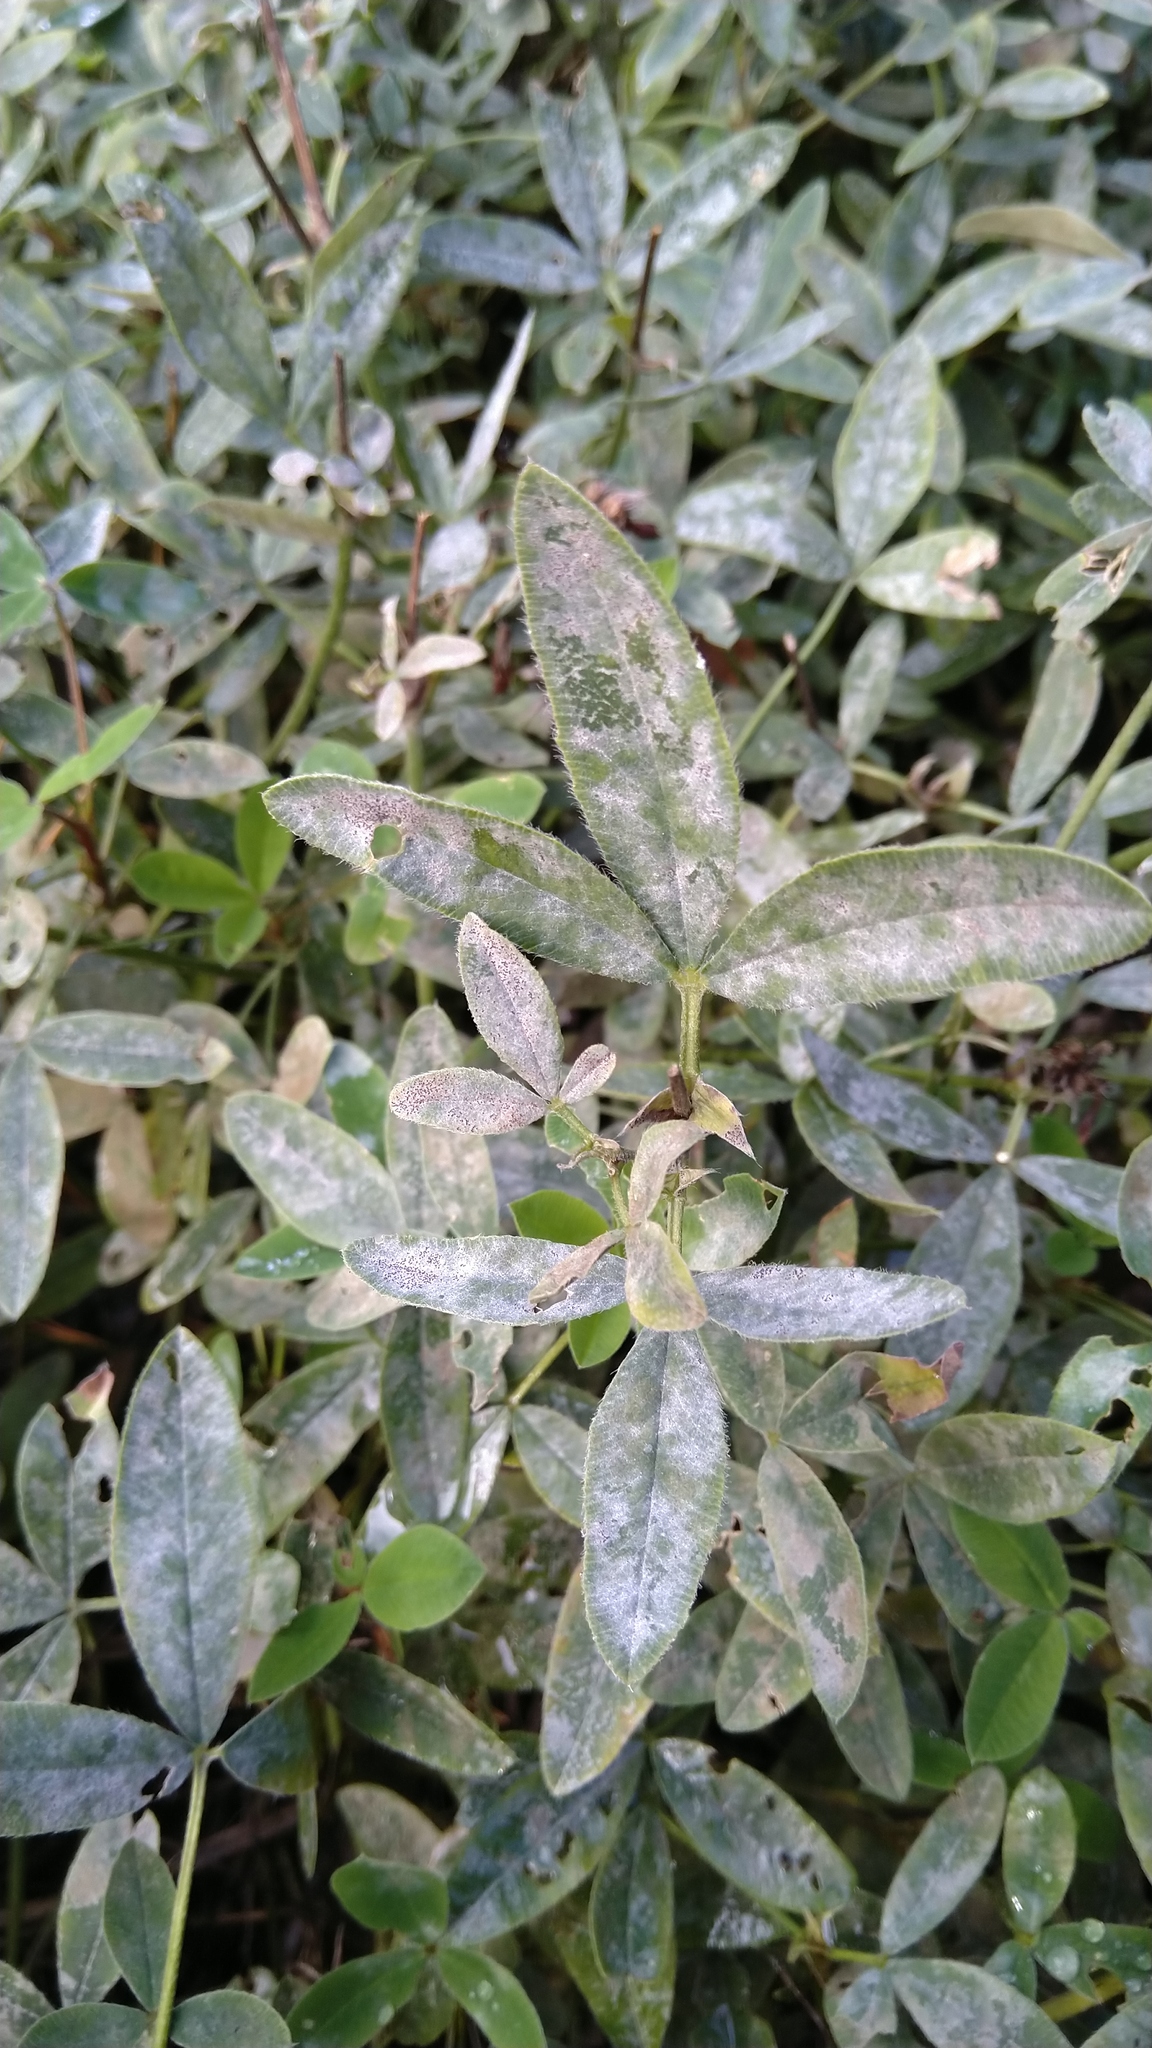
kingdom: Fungi
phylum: Ascomycota
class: Leotiomycetes
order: Helotiales
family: Erysiphaceae
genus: Erysiphe
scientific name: Erysiphe trifoliorum
